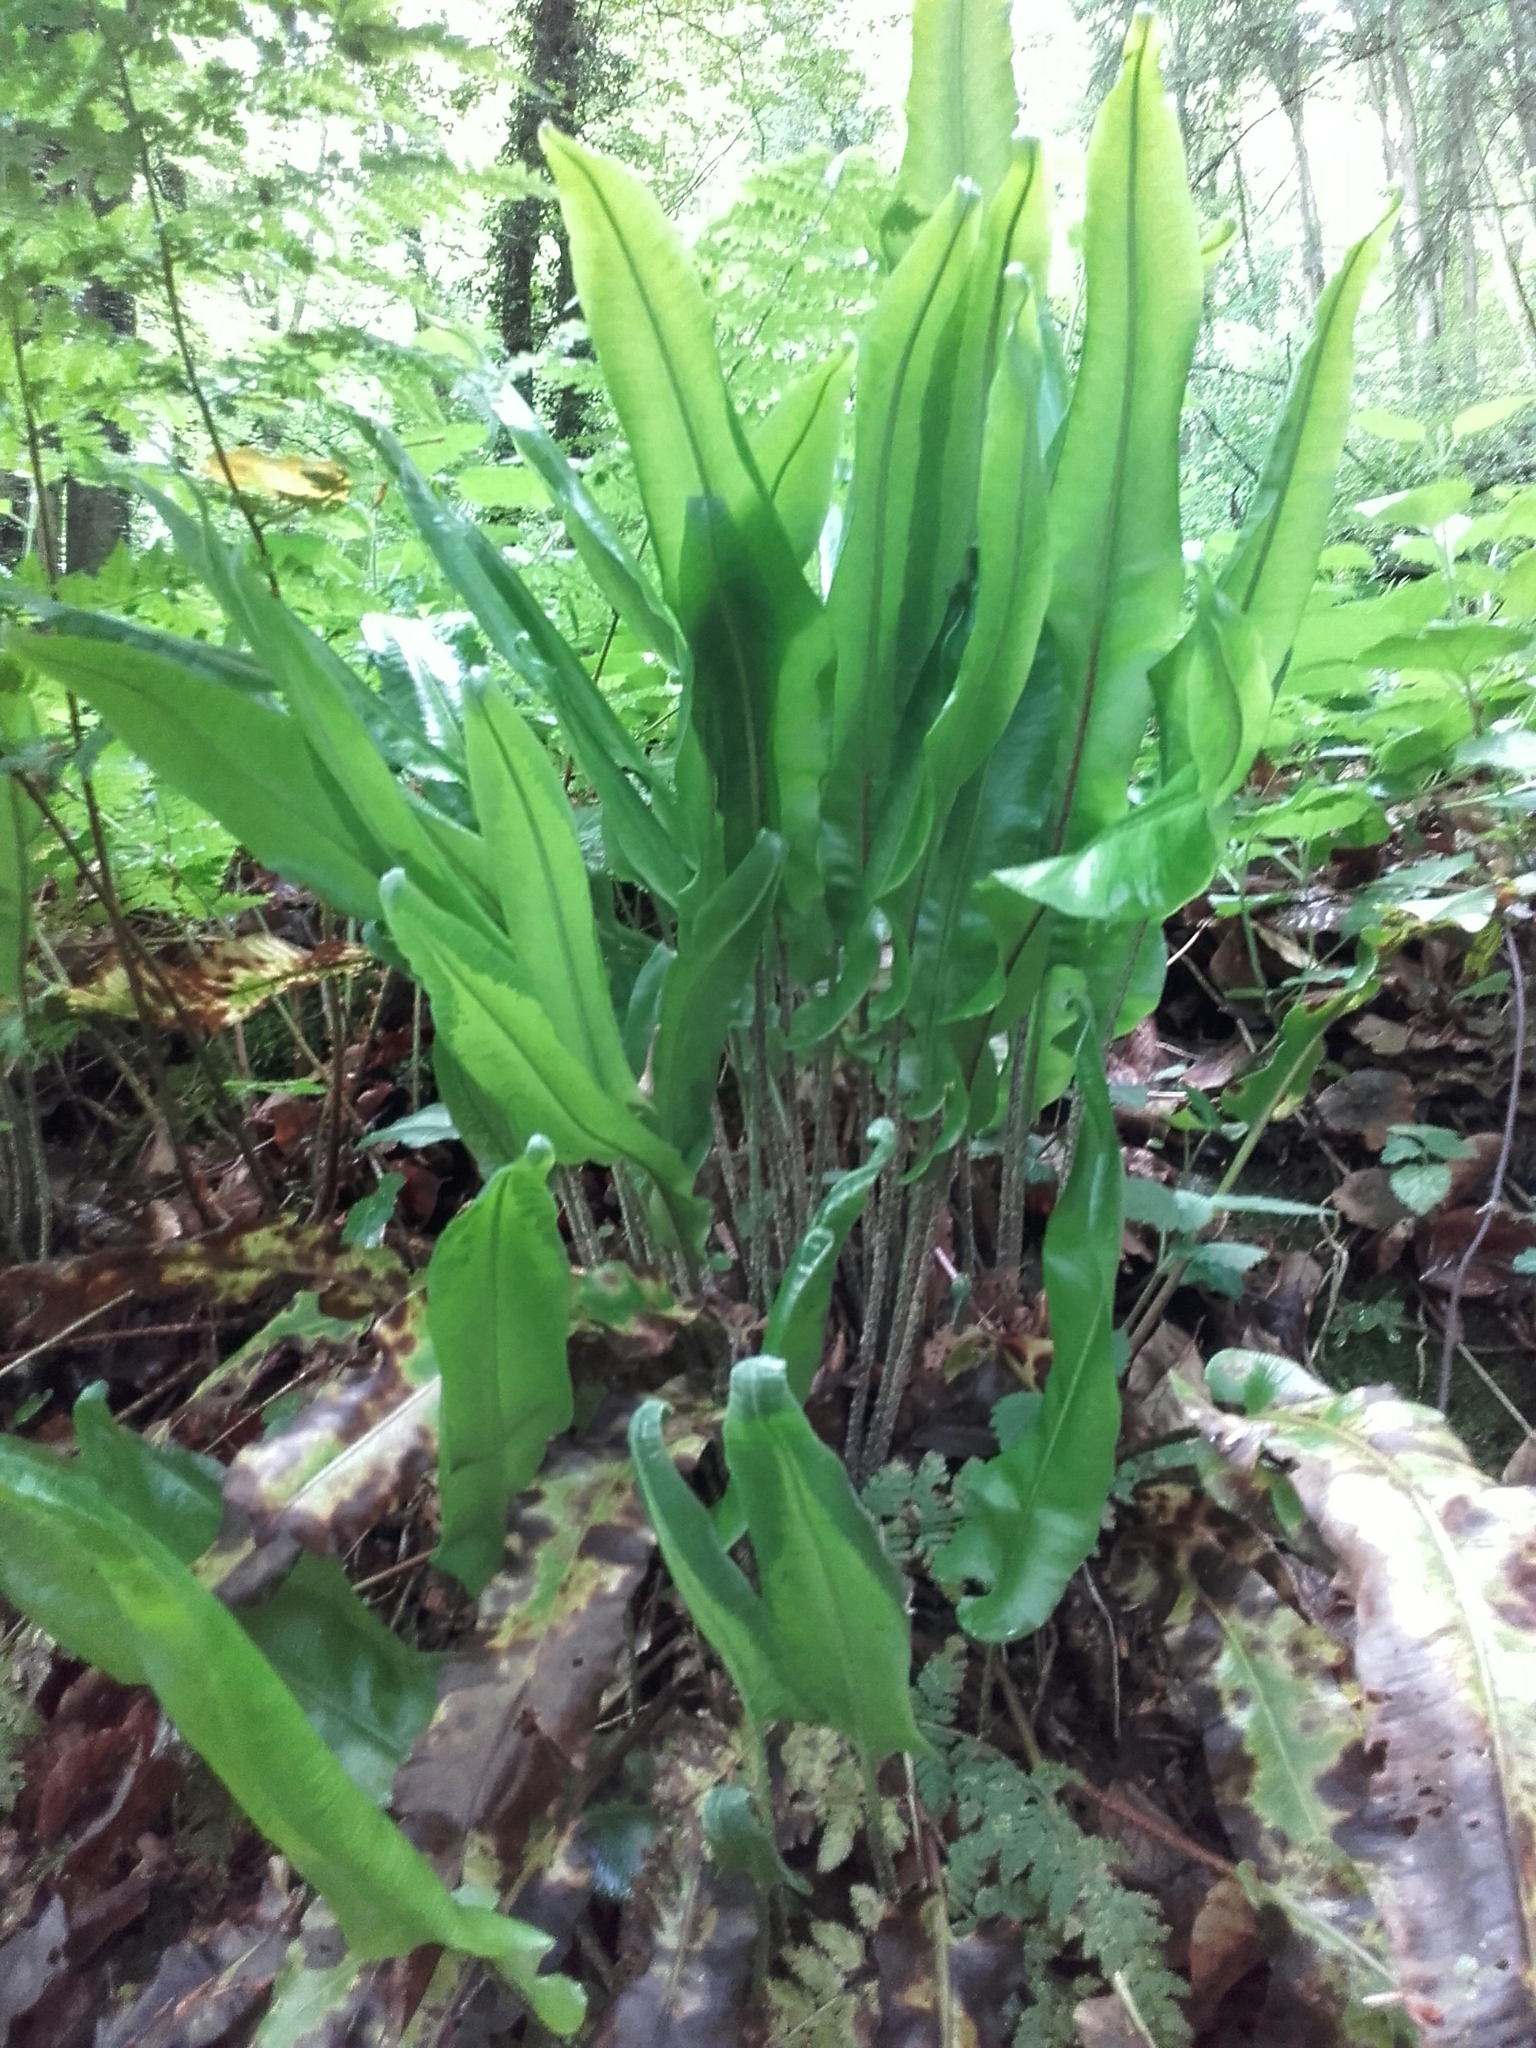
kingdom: Plantae
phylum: Tracheophyta
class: Polypodiopsida
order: Polypodiales
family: Aspleniaceae
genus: Asplenium
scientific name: Asplenium scolopendrium
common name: Hart's-tongue fern
